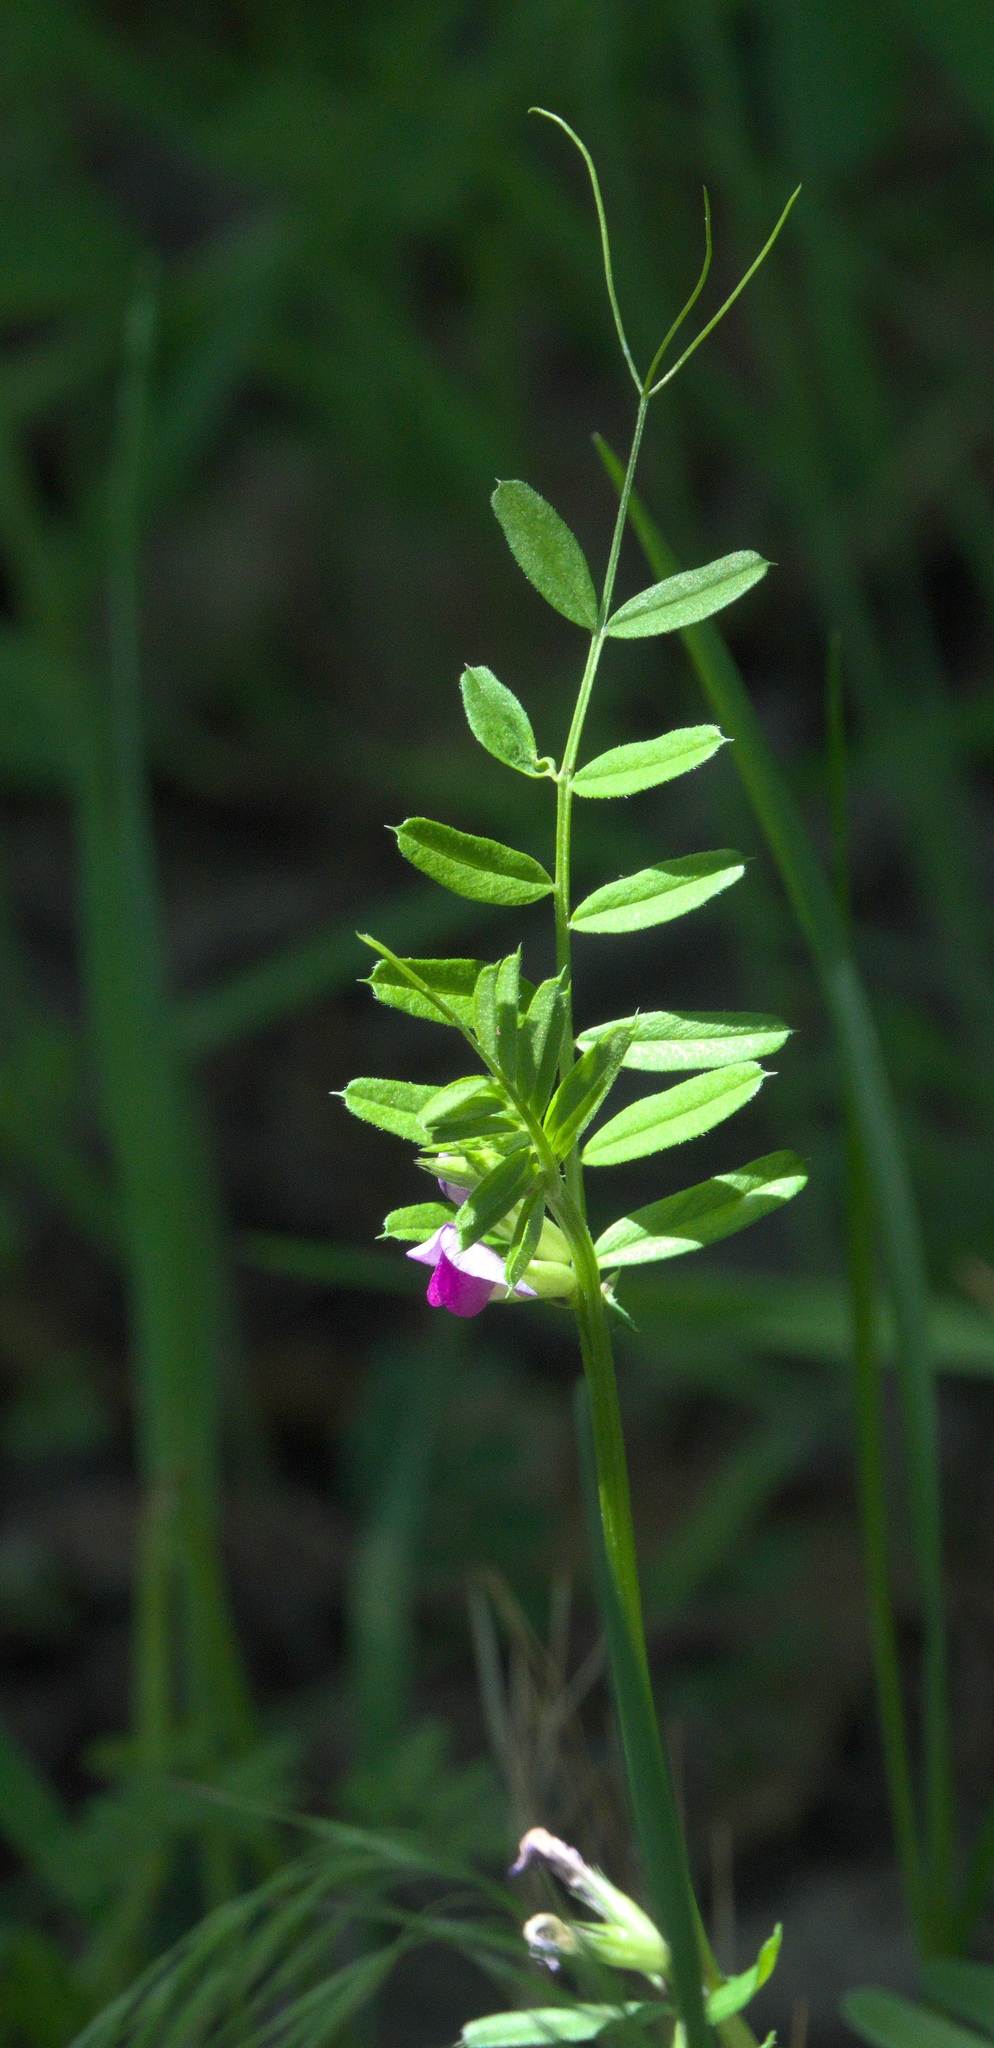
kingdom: Plantae
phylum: Tracheophyta
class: Magnoliopsida
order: Fabales
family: Fabaceae
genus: Vicia
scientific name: Vicia sativa
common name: Garden vetch
